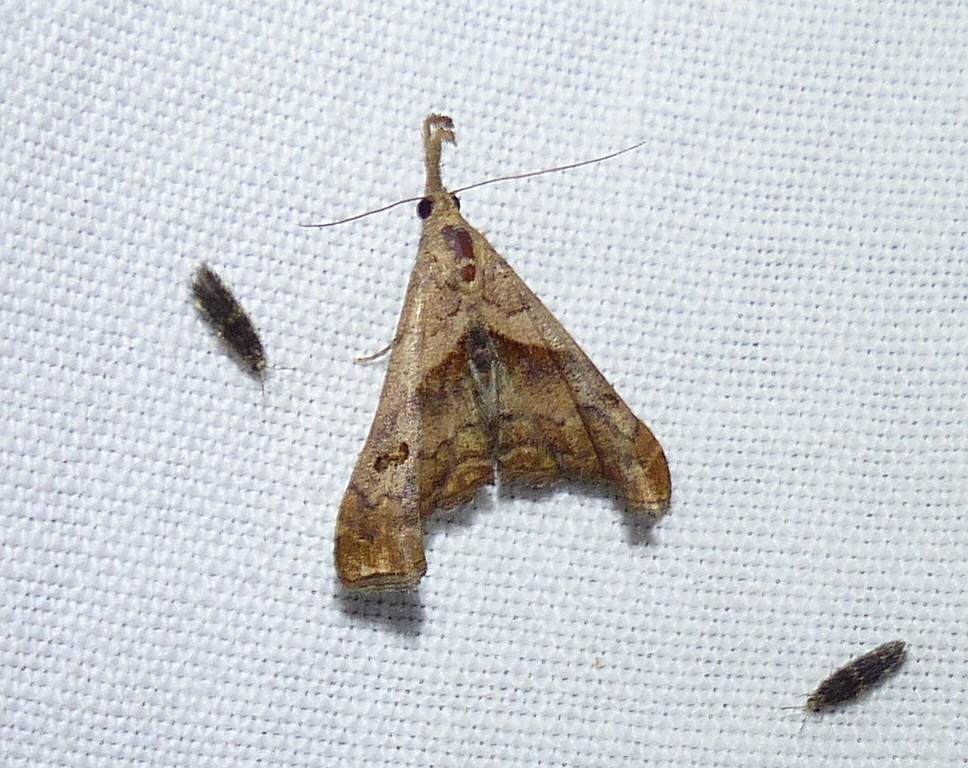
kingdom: Animalia
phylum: Arthropoda
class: Insecta
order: Lepidoptera
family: Erebidae
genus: Palthis
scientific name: Palthis angulalis
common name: Dark-spotted palthis moth
